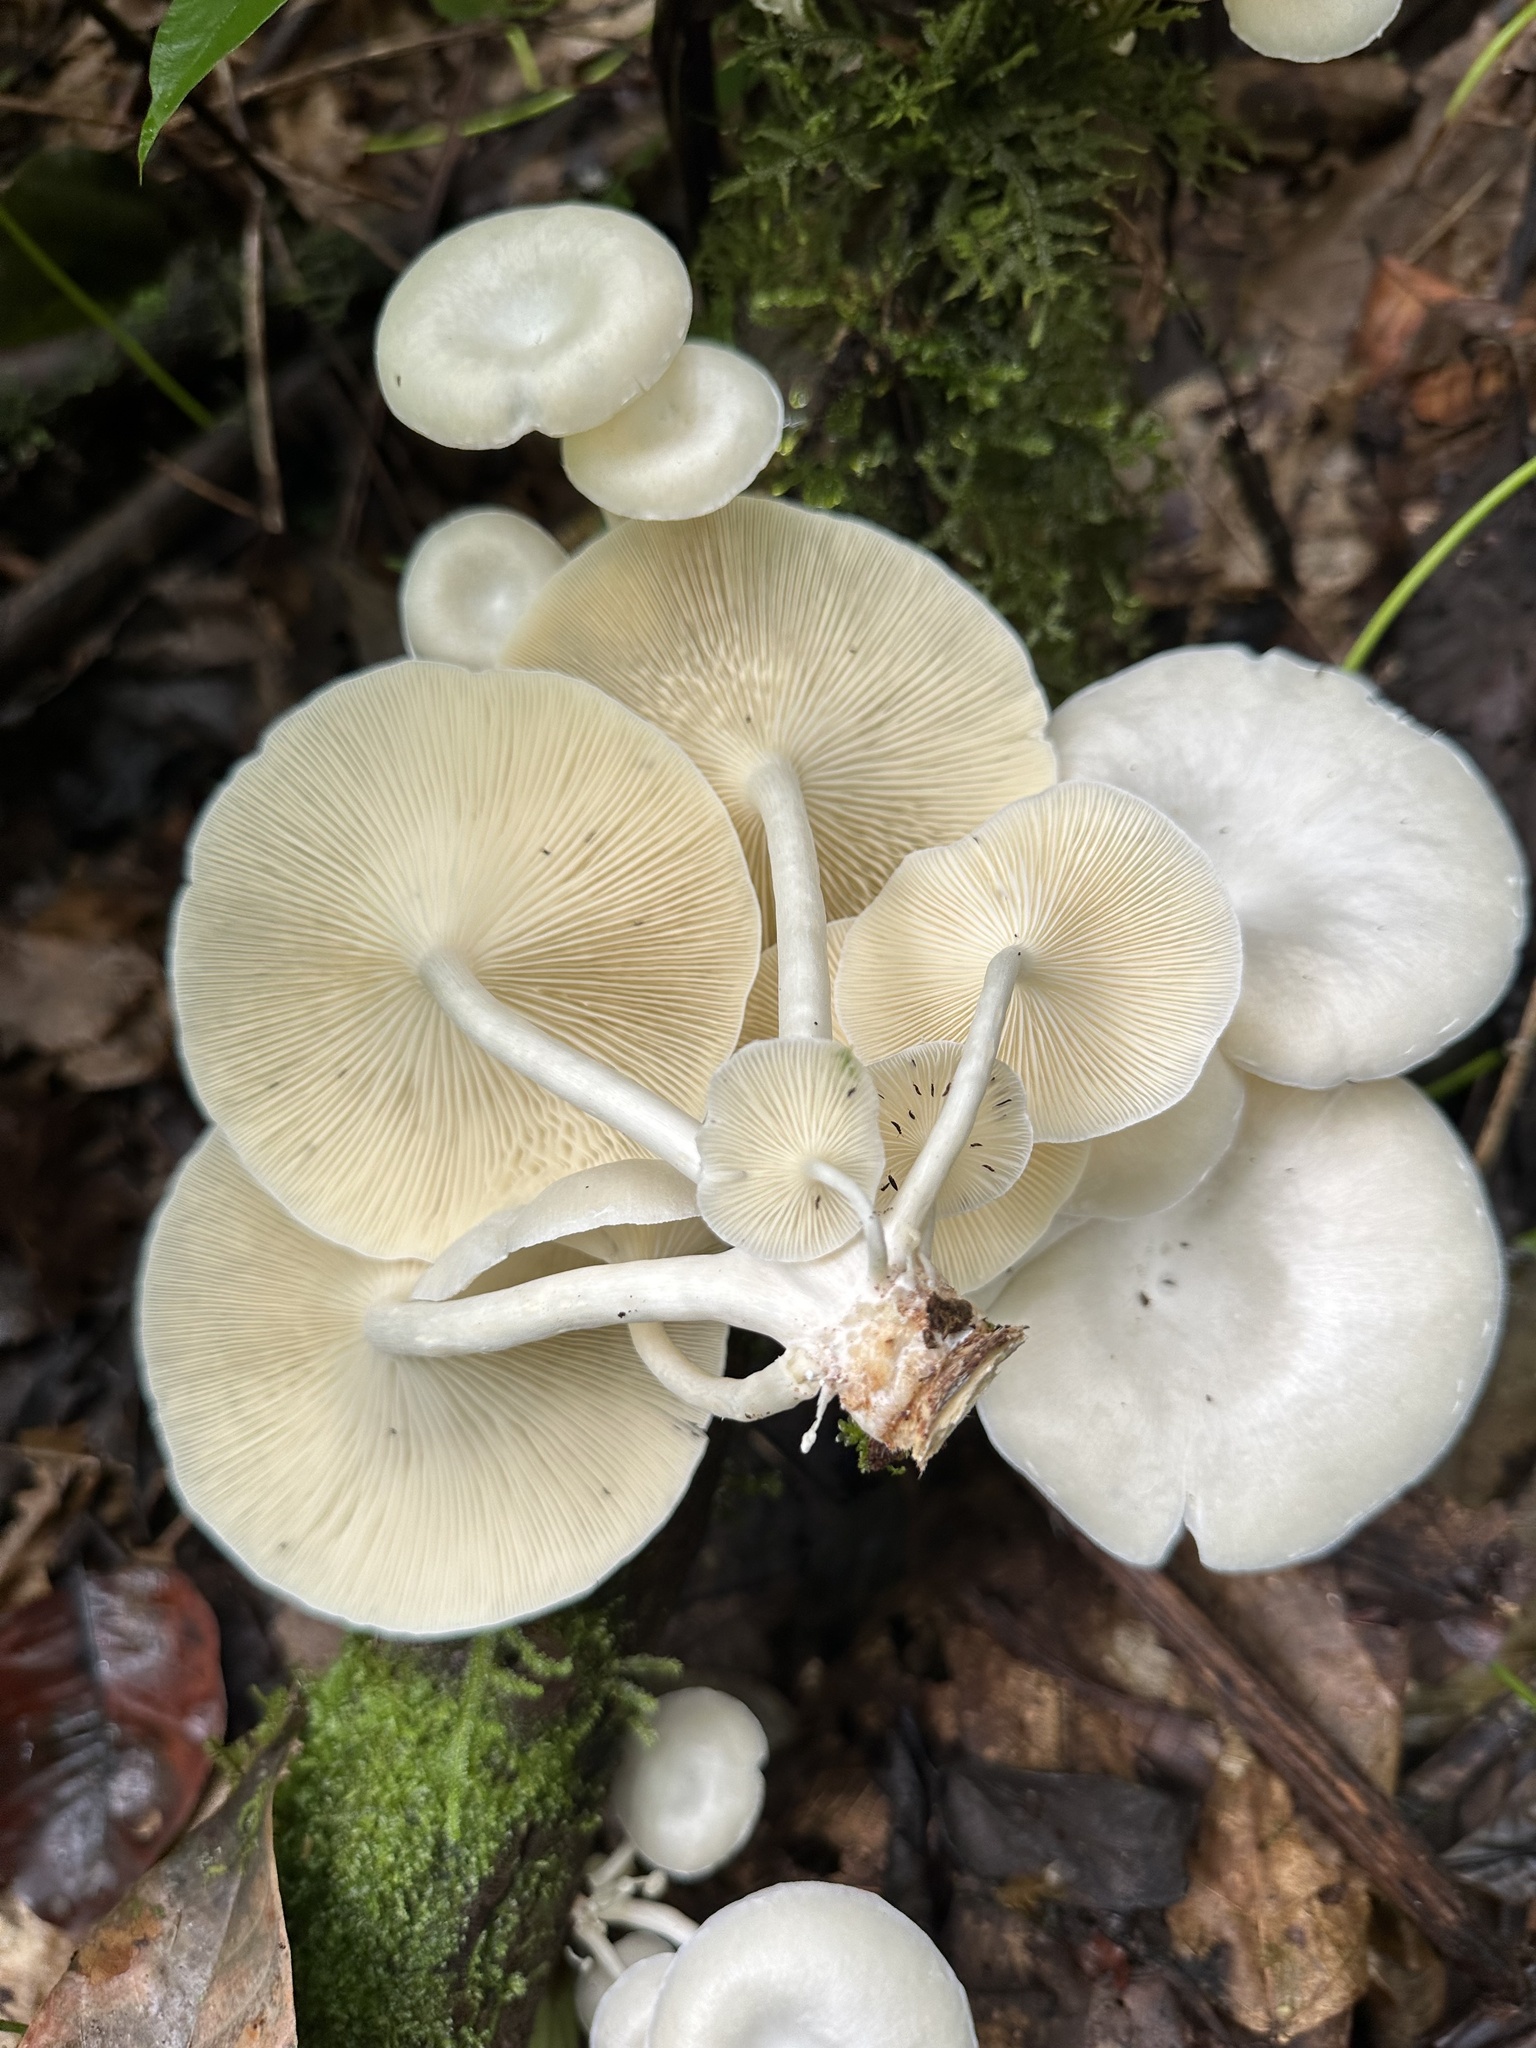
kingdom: Fungi
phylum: Basidiomycota
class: Agaricomycetes
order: Polyporales
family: Polyporaceae
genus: Lentinus
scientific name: Lentinus concavus
